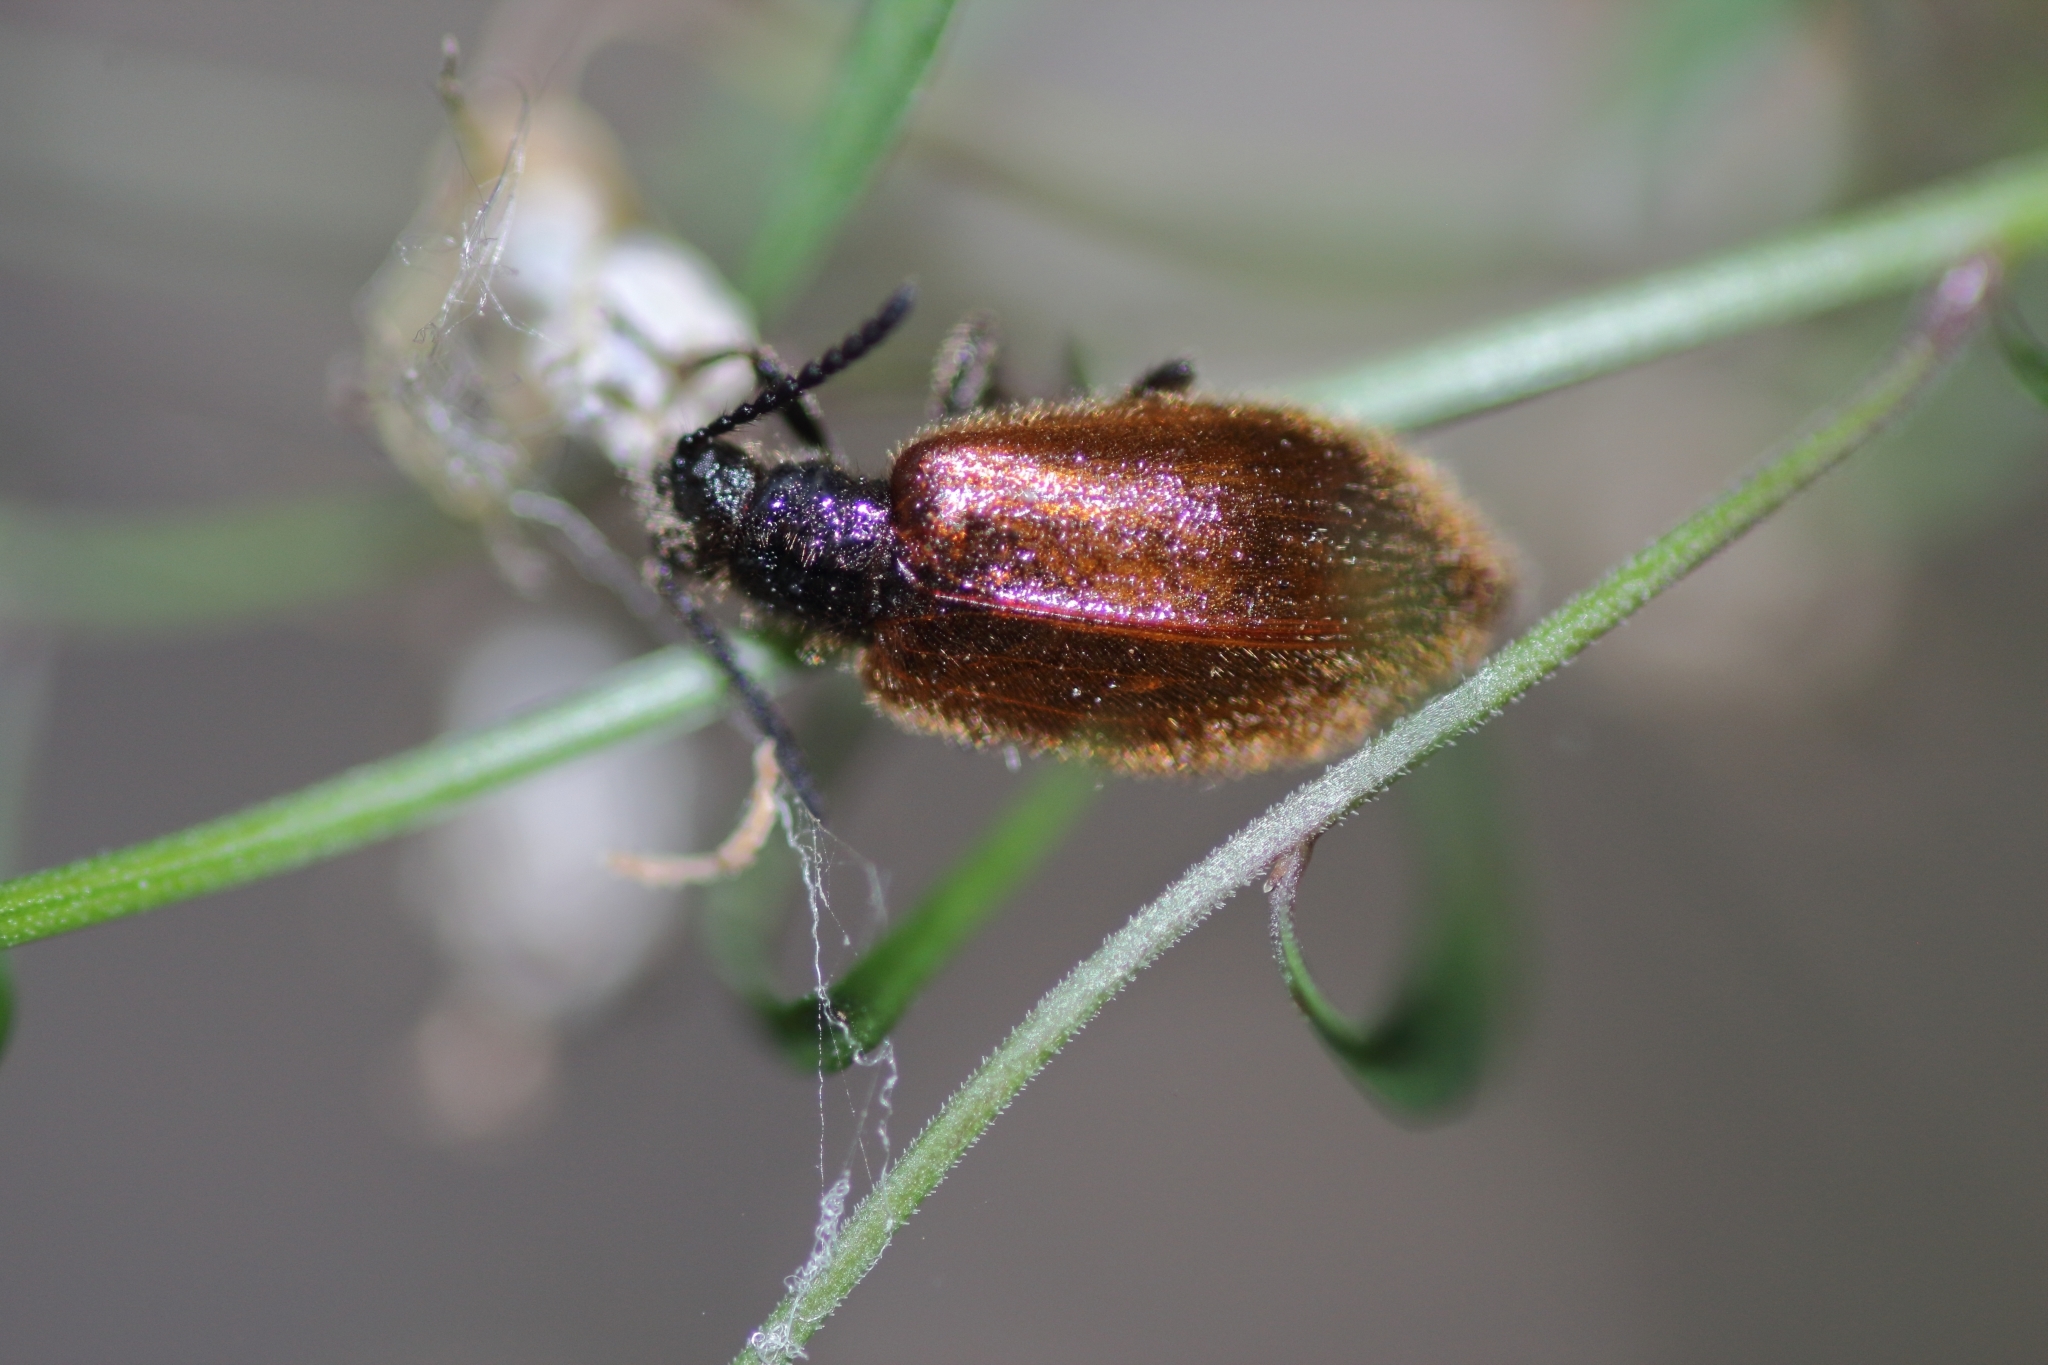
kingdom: Animalia
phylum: Arthropoda
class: Insecta
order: Coleoptera
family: Tenebrionidae
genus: Lagria
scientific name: Lagria hirta
